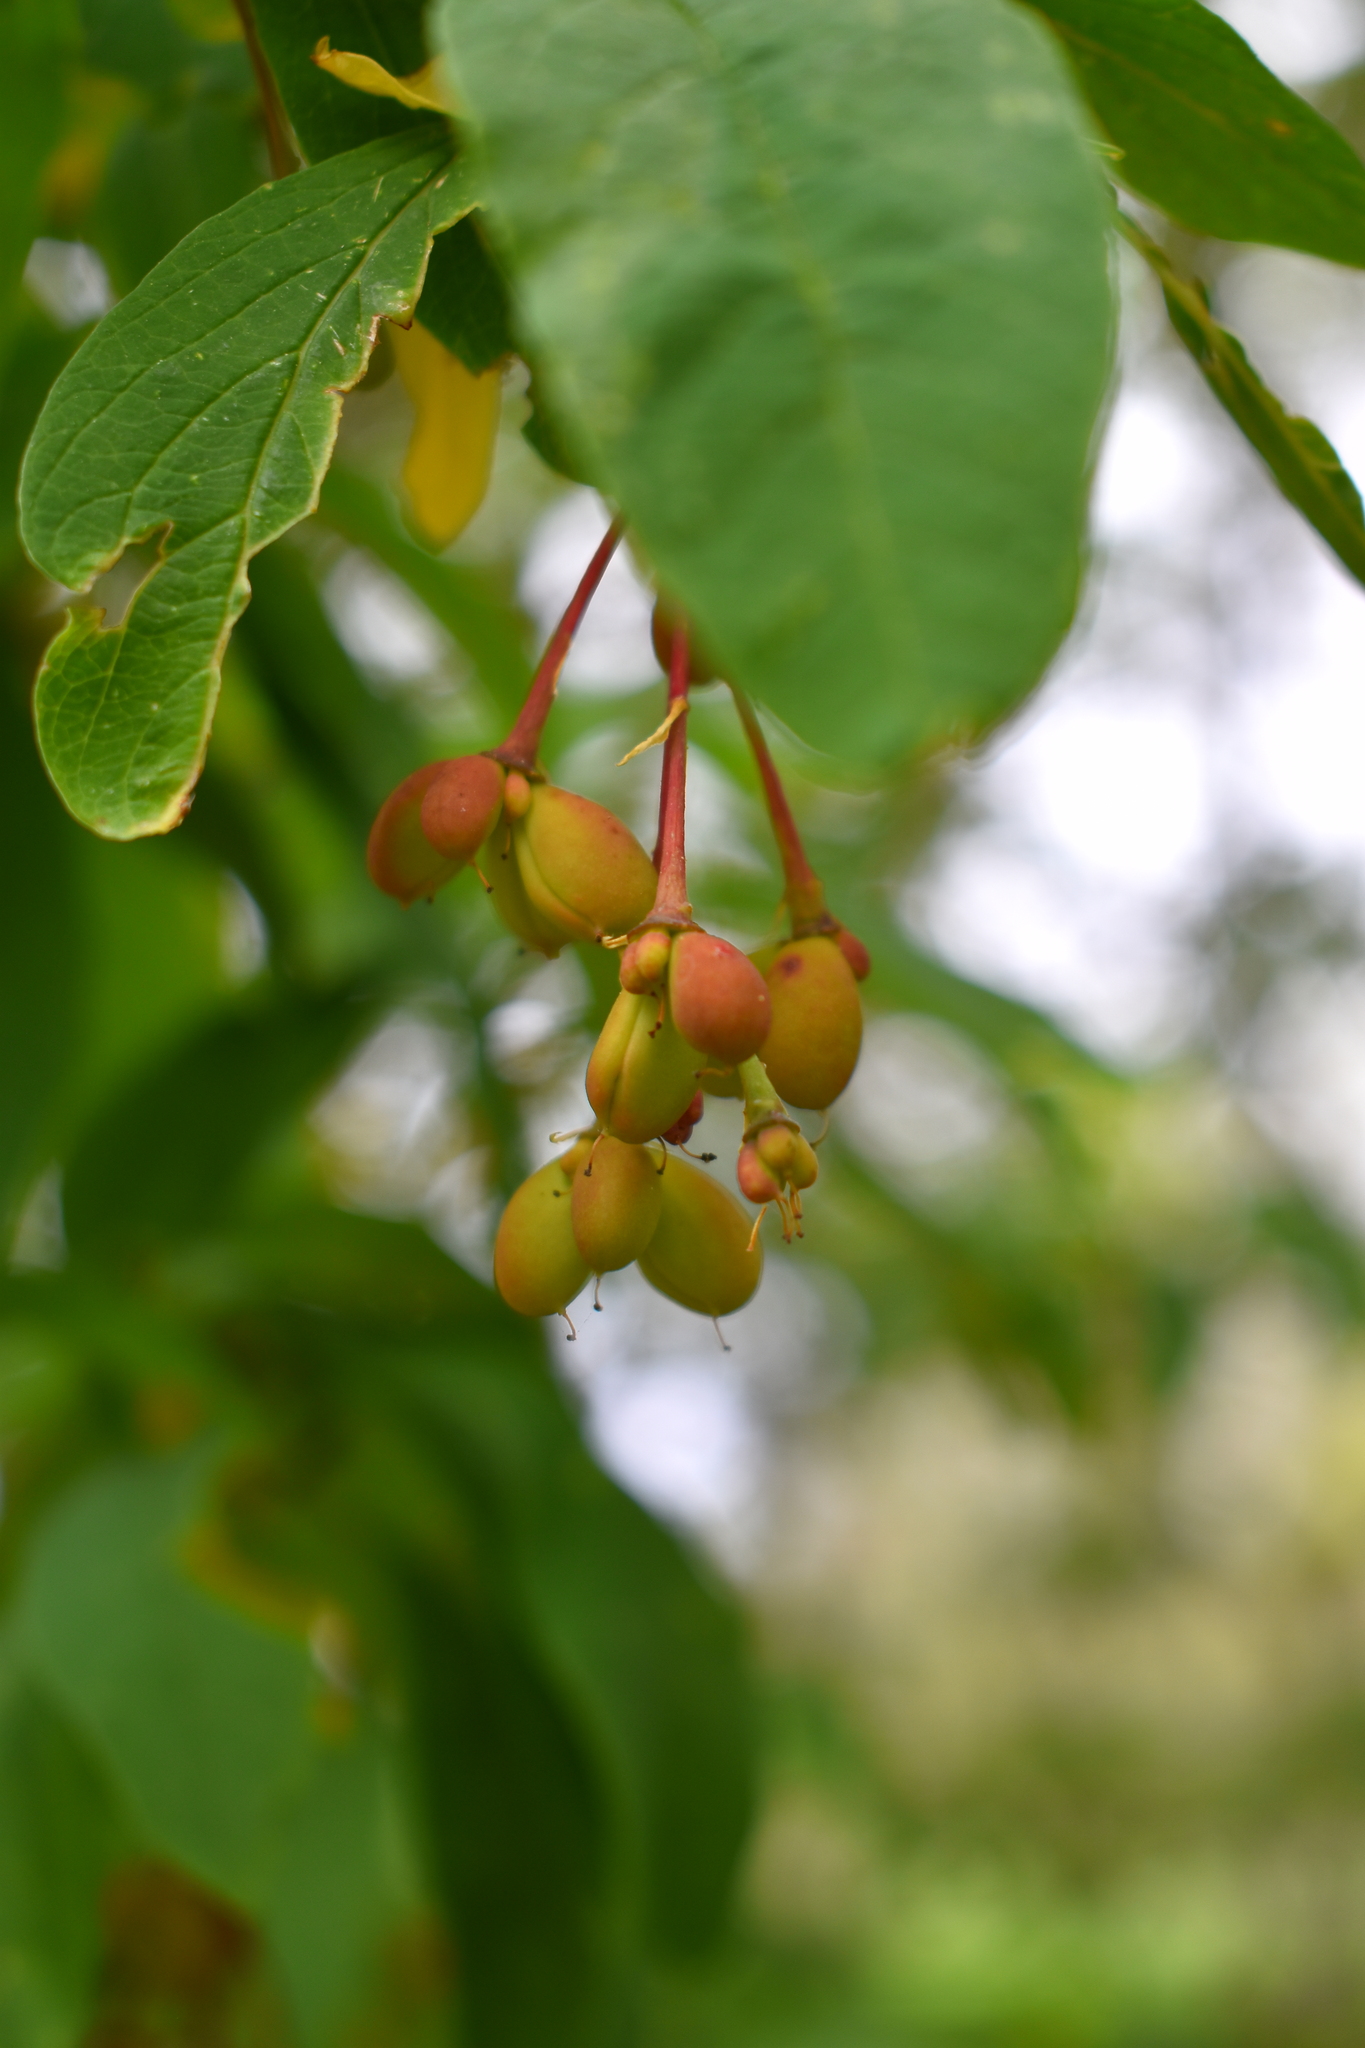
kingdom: Plantae
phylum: Tracheophyta
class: Magnoliopsida
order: Rosales
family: Rosaceae
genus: Oemleria
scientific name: Oemleria cerasiformis
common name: Osoberry
